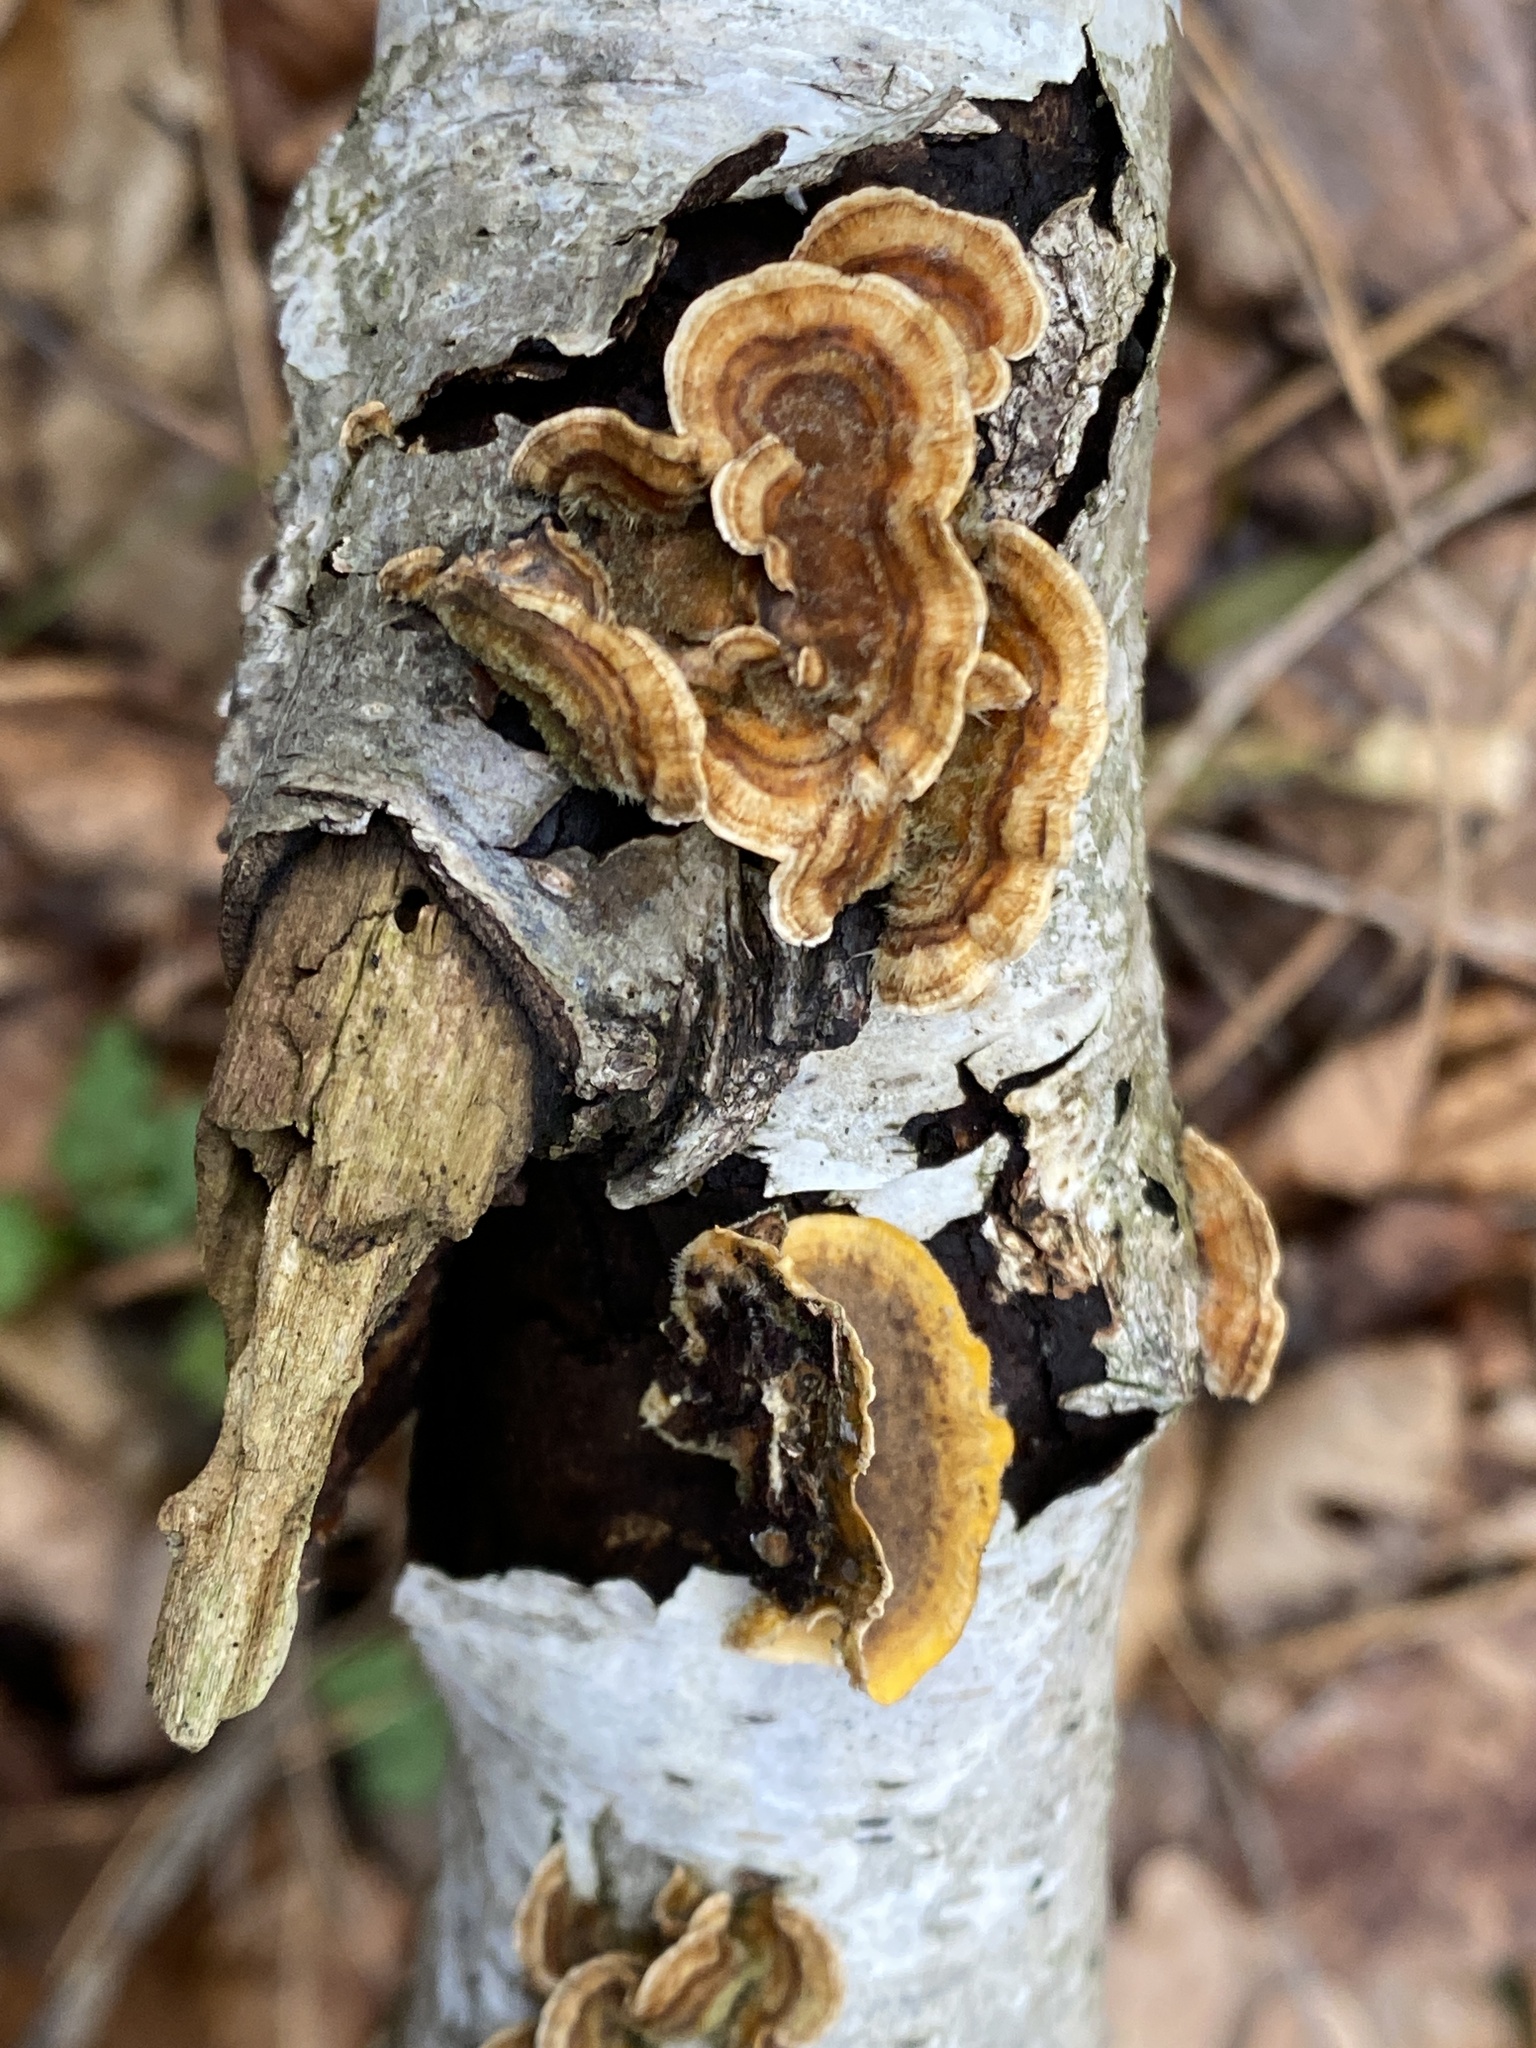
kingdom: Fungi
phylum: Basidiomycota
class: Agaricomycetes
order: Russulales
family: Stereaceae
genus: Stereum
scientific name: Stereum hirsutum
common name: Hairy curtain crust
